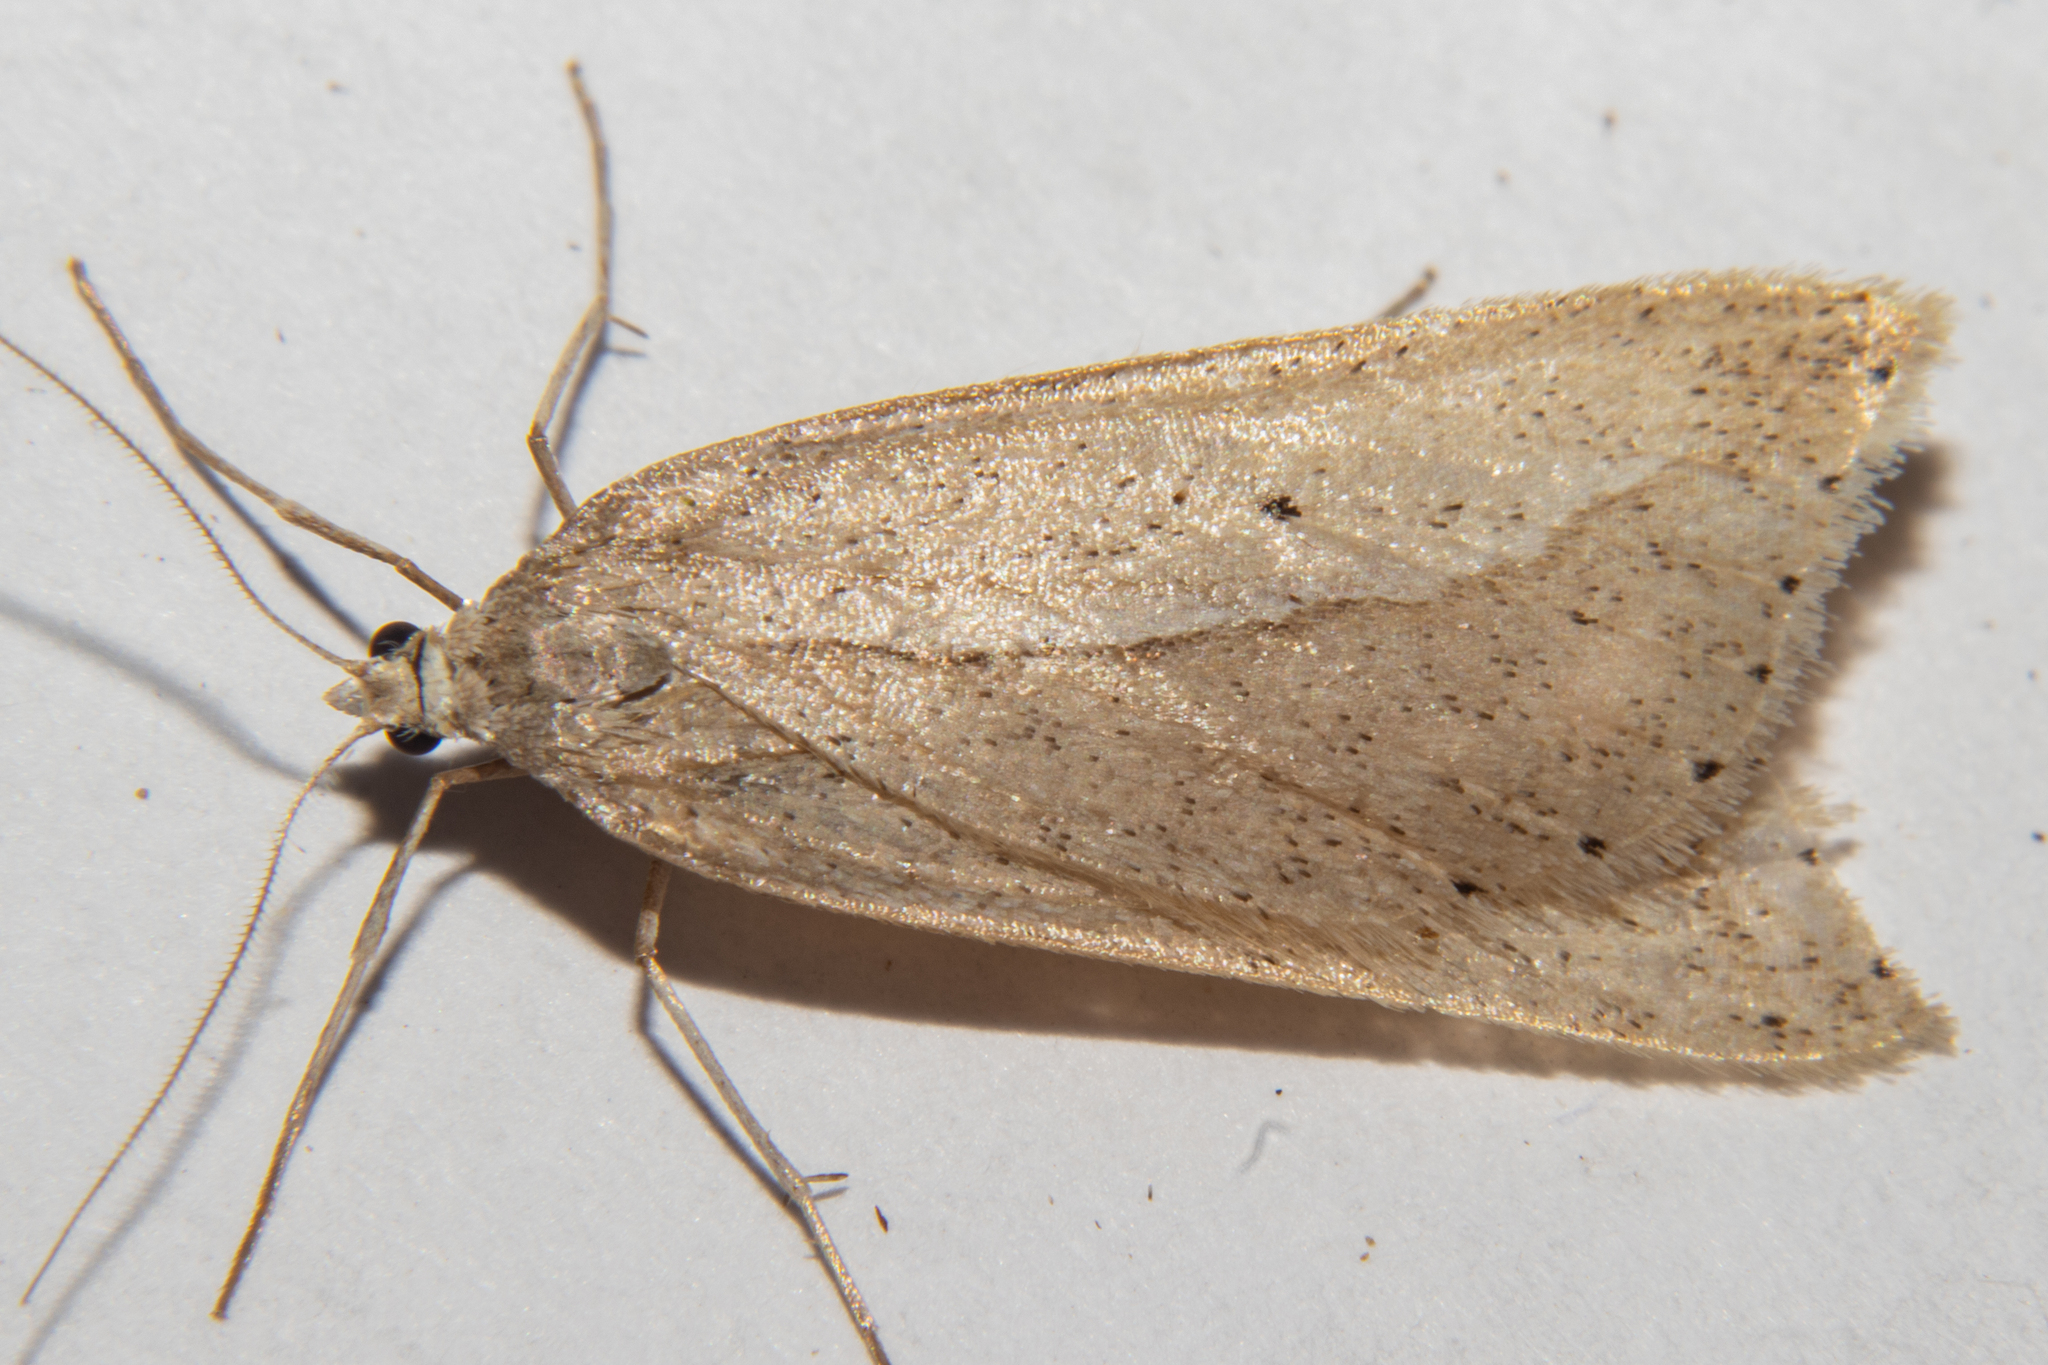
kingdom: Animalia
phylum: Arthropoda
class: Insecta
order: Lepidoptera
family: Geometridae
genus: Theoxena
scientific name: Theoxena scissaria
